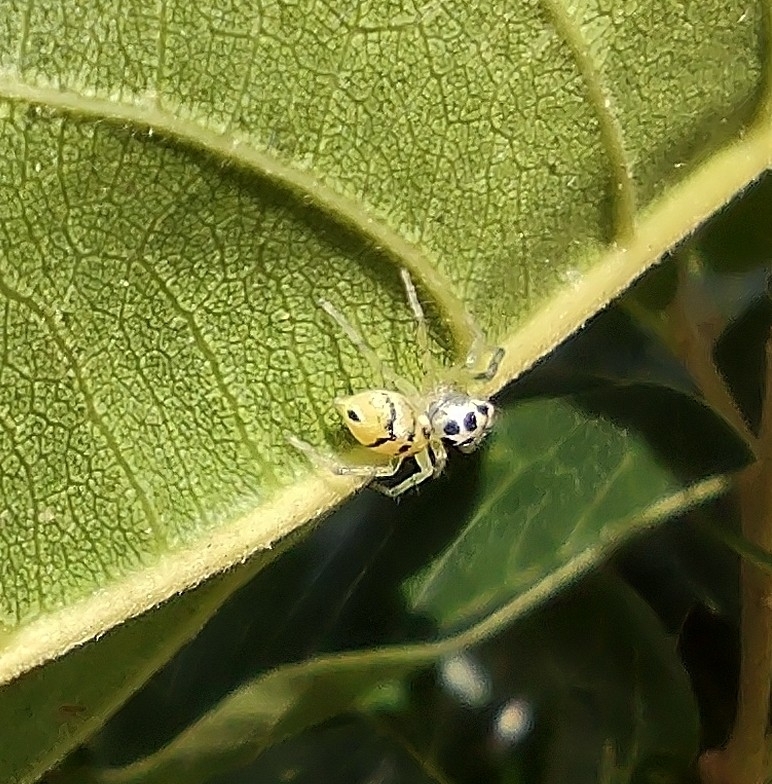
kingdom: Animalia
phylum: Arthropoda
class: Arachnida
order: Araneae
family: Salticidae
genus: Phintella
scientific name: Phintella piatensis
